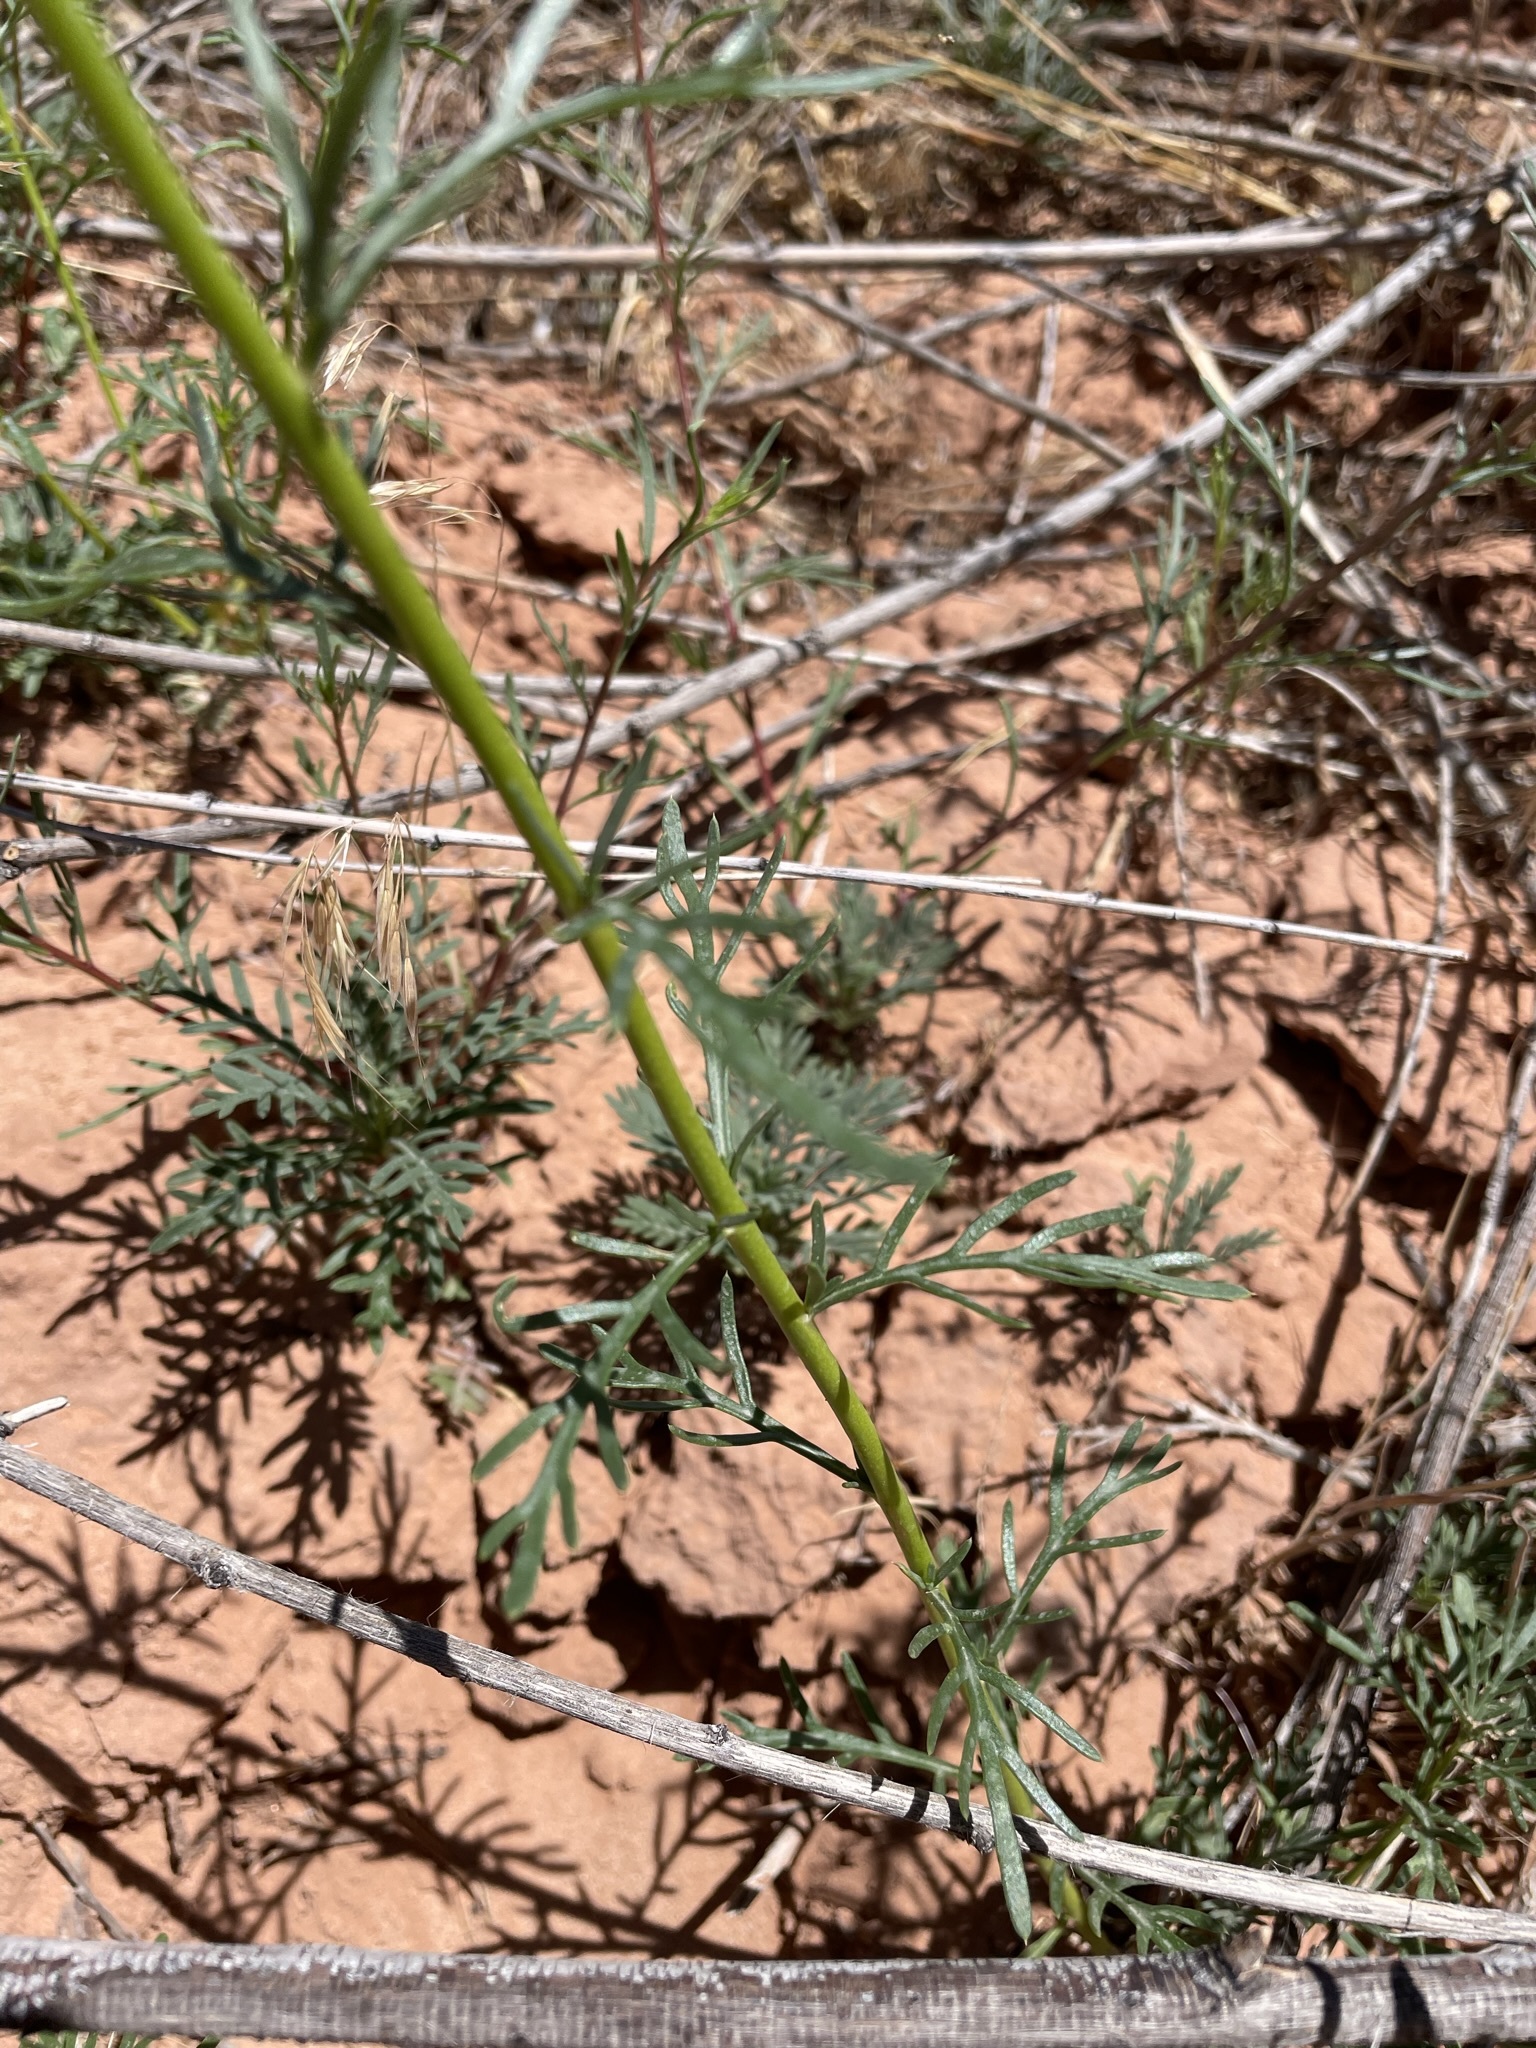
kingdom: Plantae
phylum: Tracheophyta
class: Magnoliopsida
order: Ericales
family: Polemoniaceae
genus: Ipomopsis
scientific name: Ipomopsis aggregata
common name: Scarlet gilia
